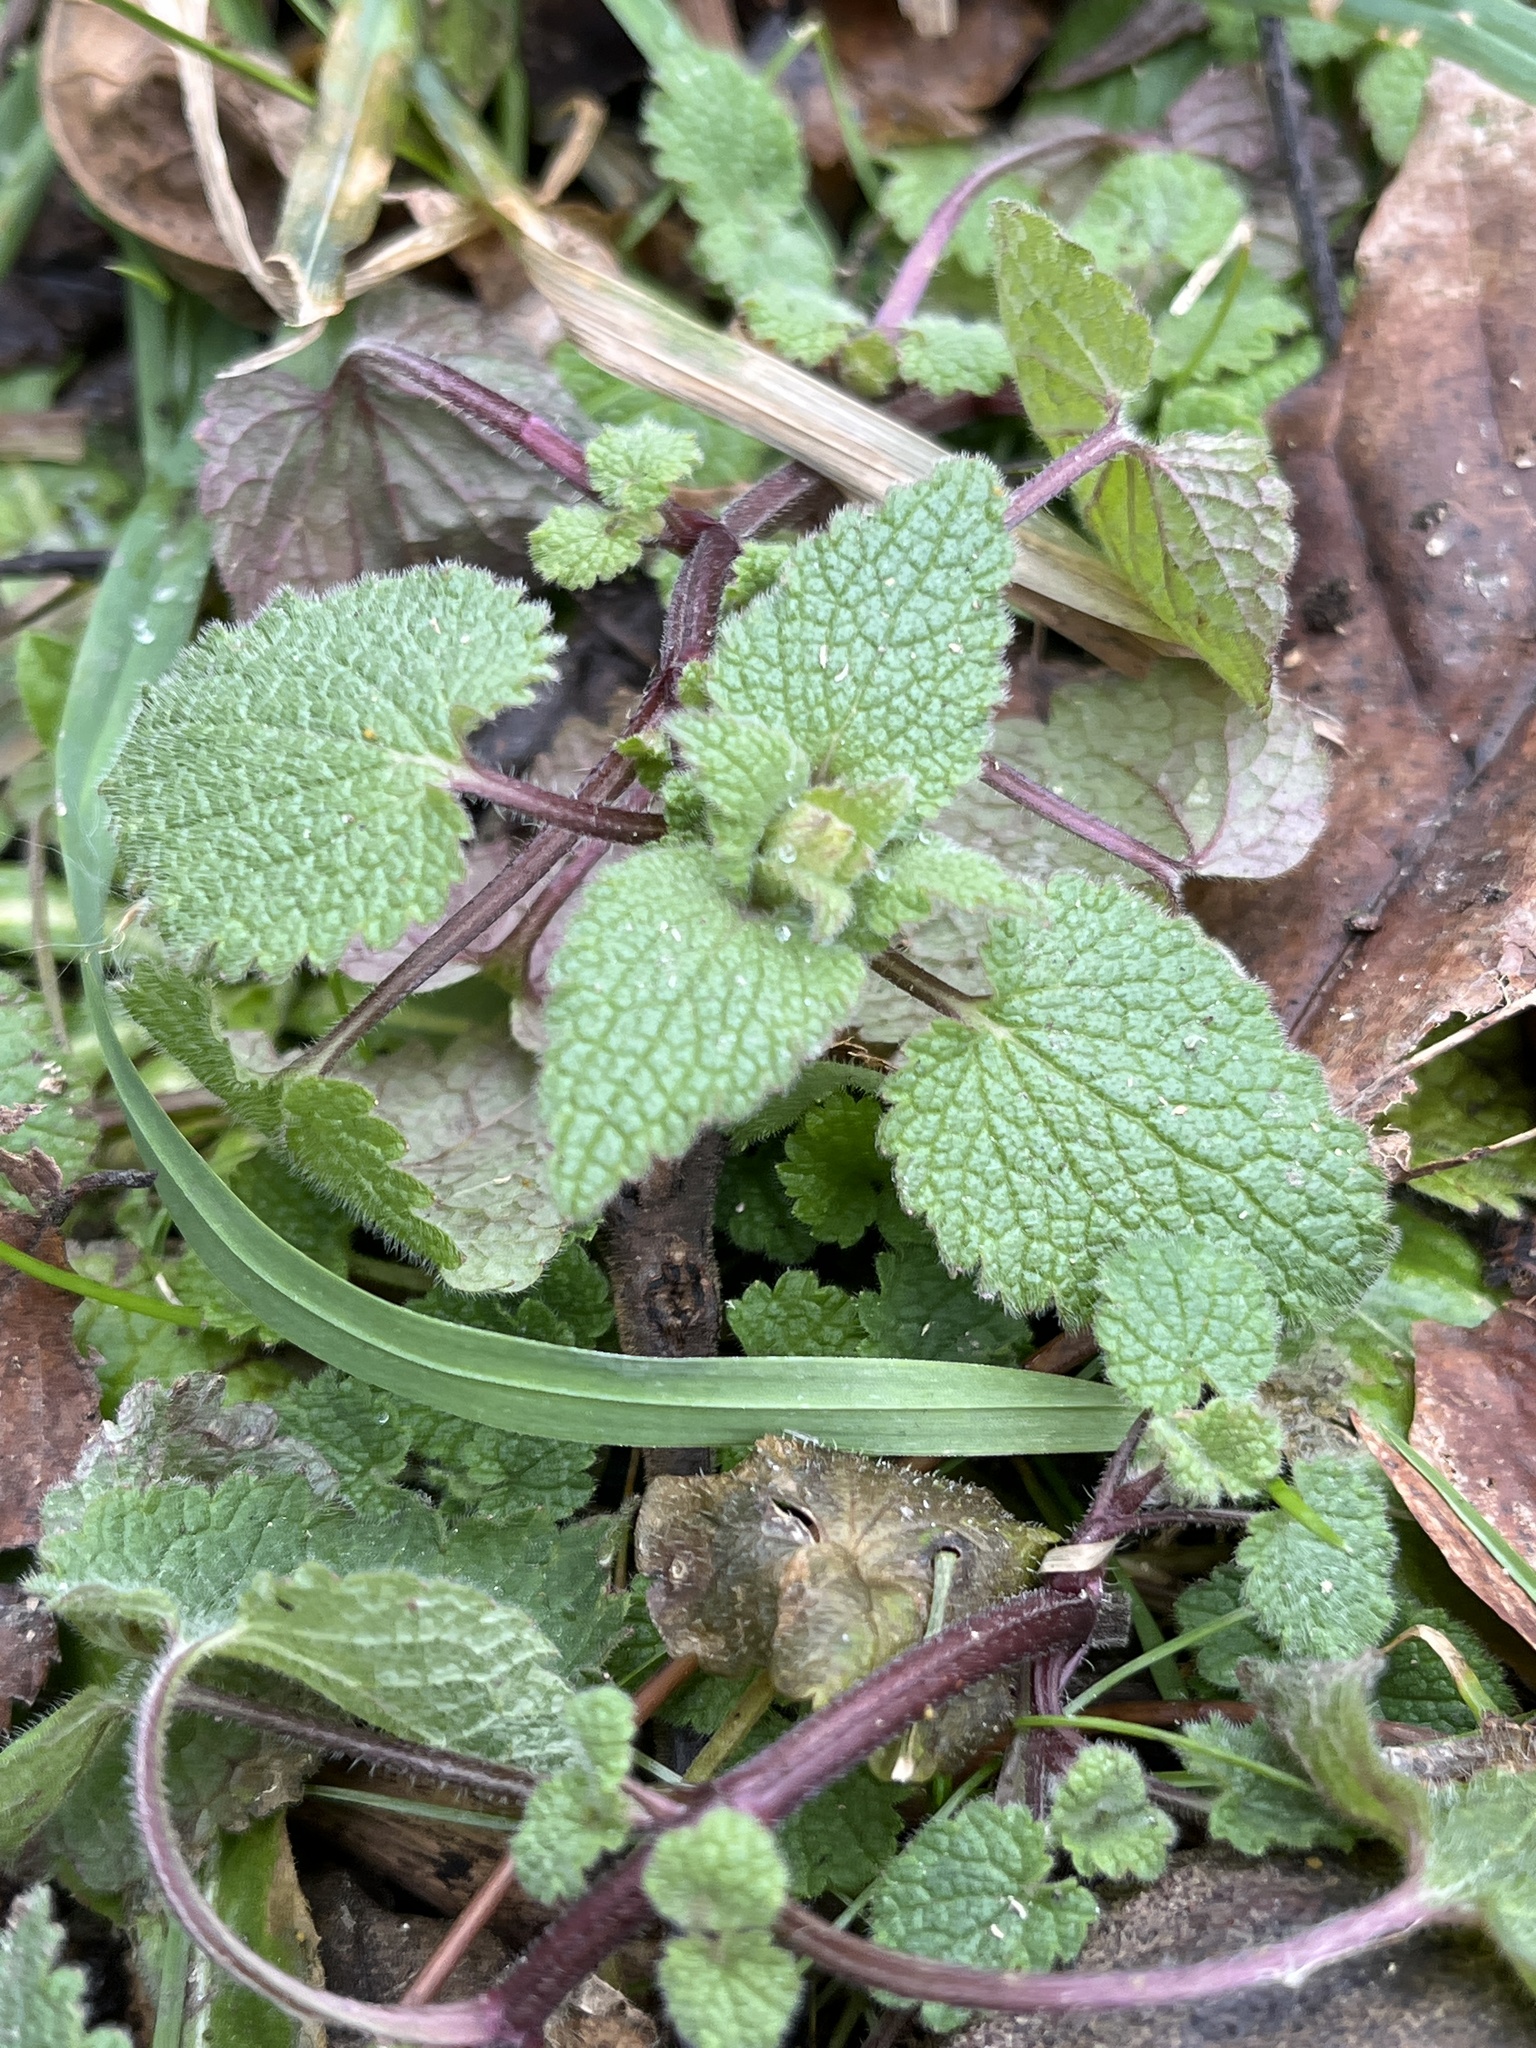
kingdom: Plantae
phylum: Tracheophyta
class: Magnoliopsida
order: Lamiales
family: Lamiaceae
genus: Lamium
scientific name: Lamium purpureum
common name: Red dead-nettle
